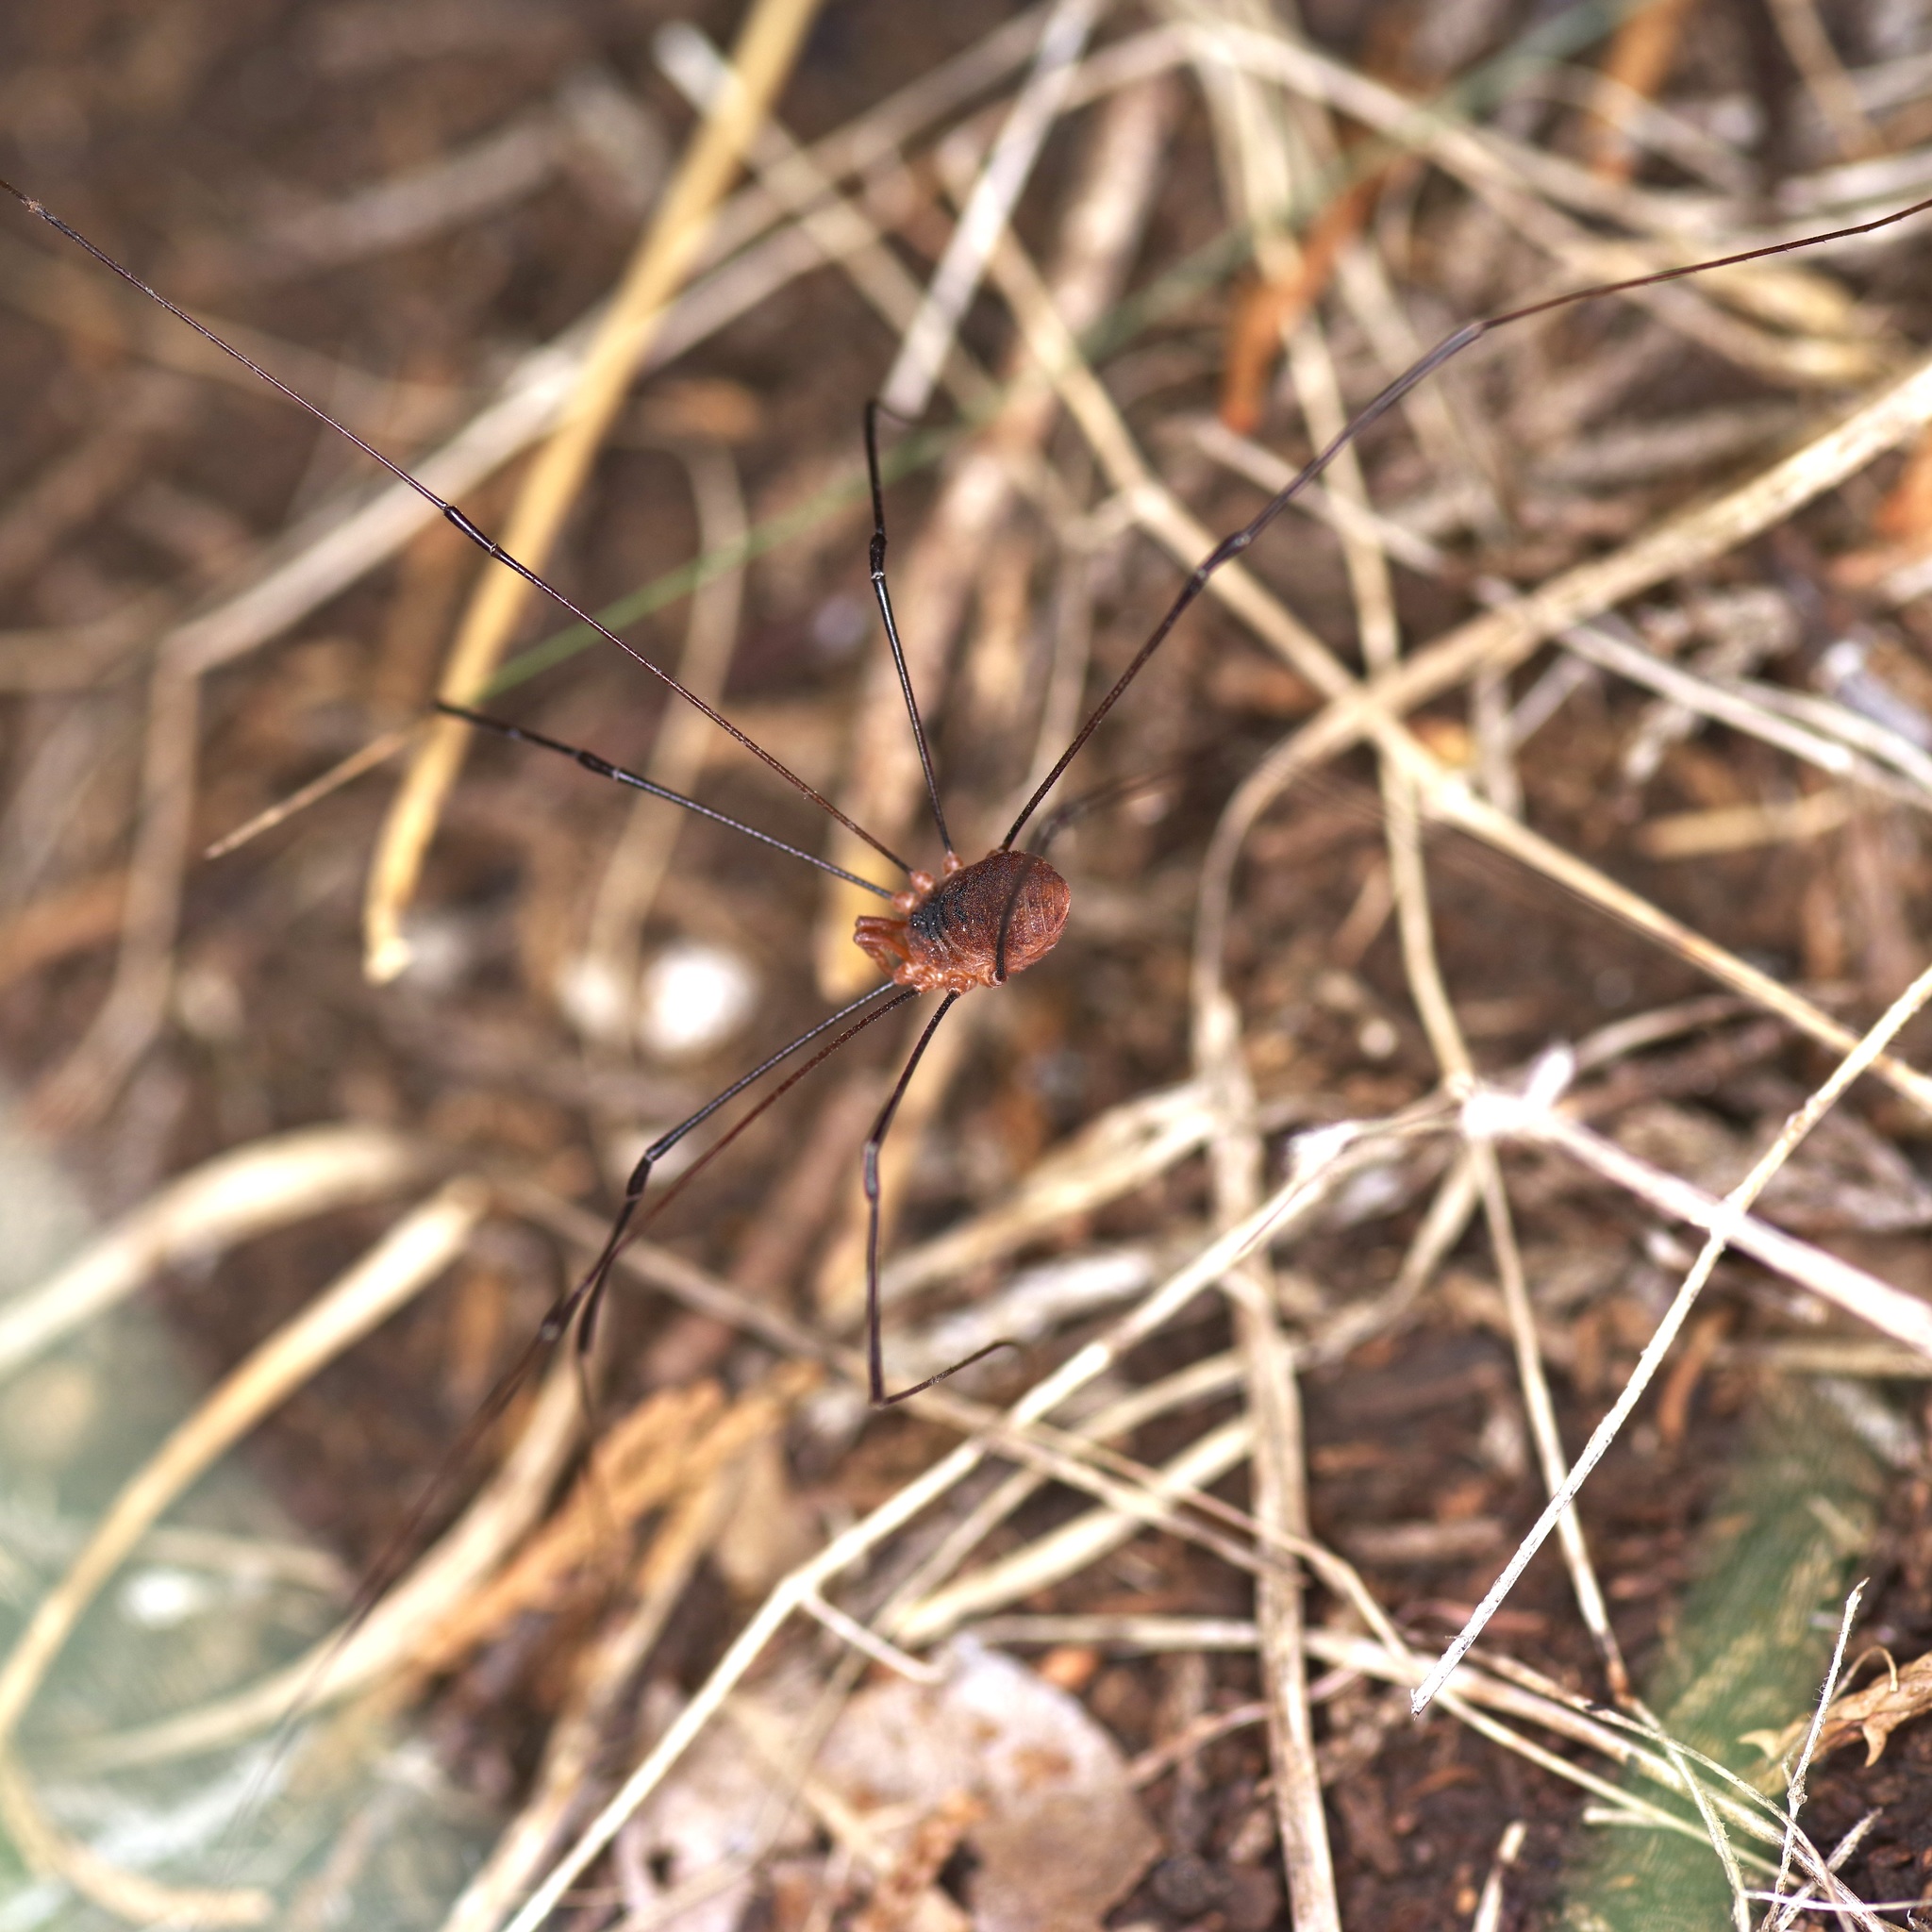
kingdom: Animalia
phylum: Arthropoda
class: Arachnida
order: Opiliones
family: Sclerosomatidae
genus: Leiobunum
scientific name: Leiobunum vittatum
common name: Eastern harvestman
